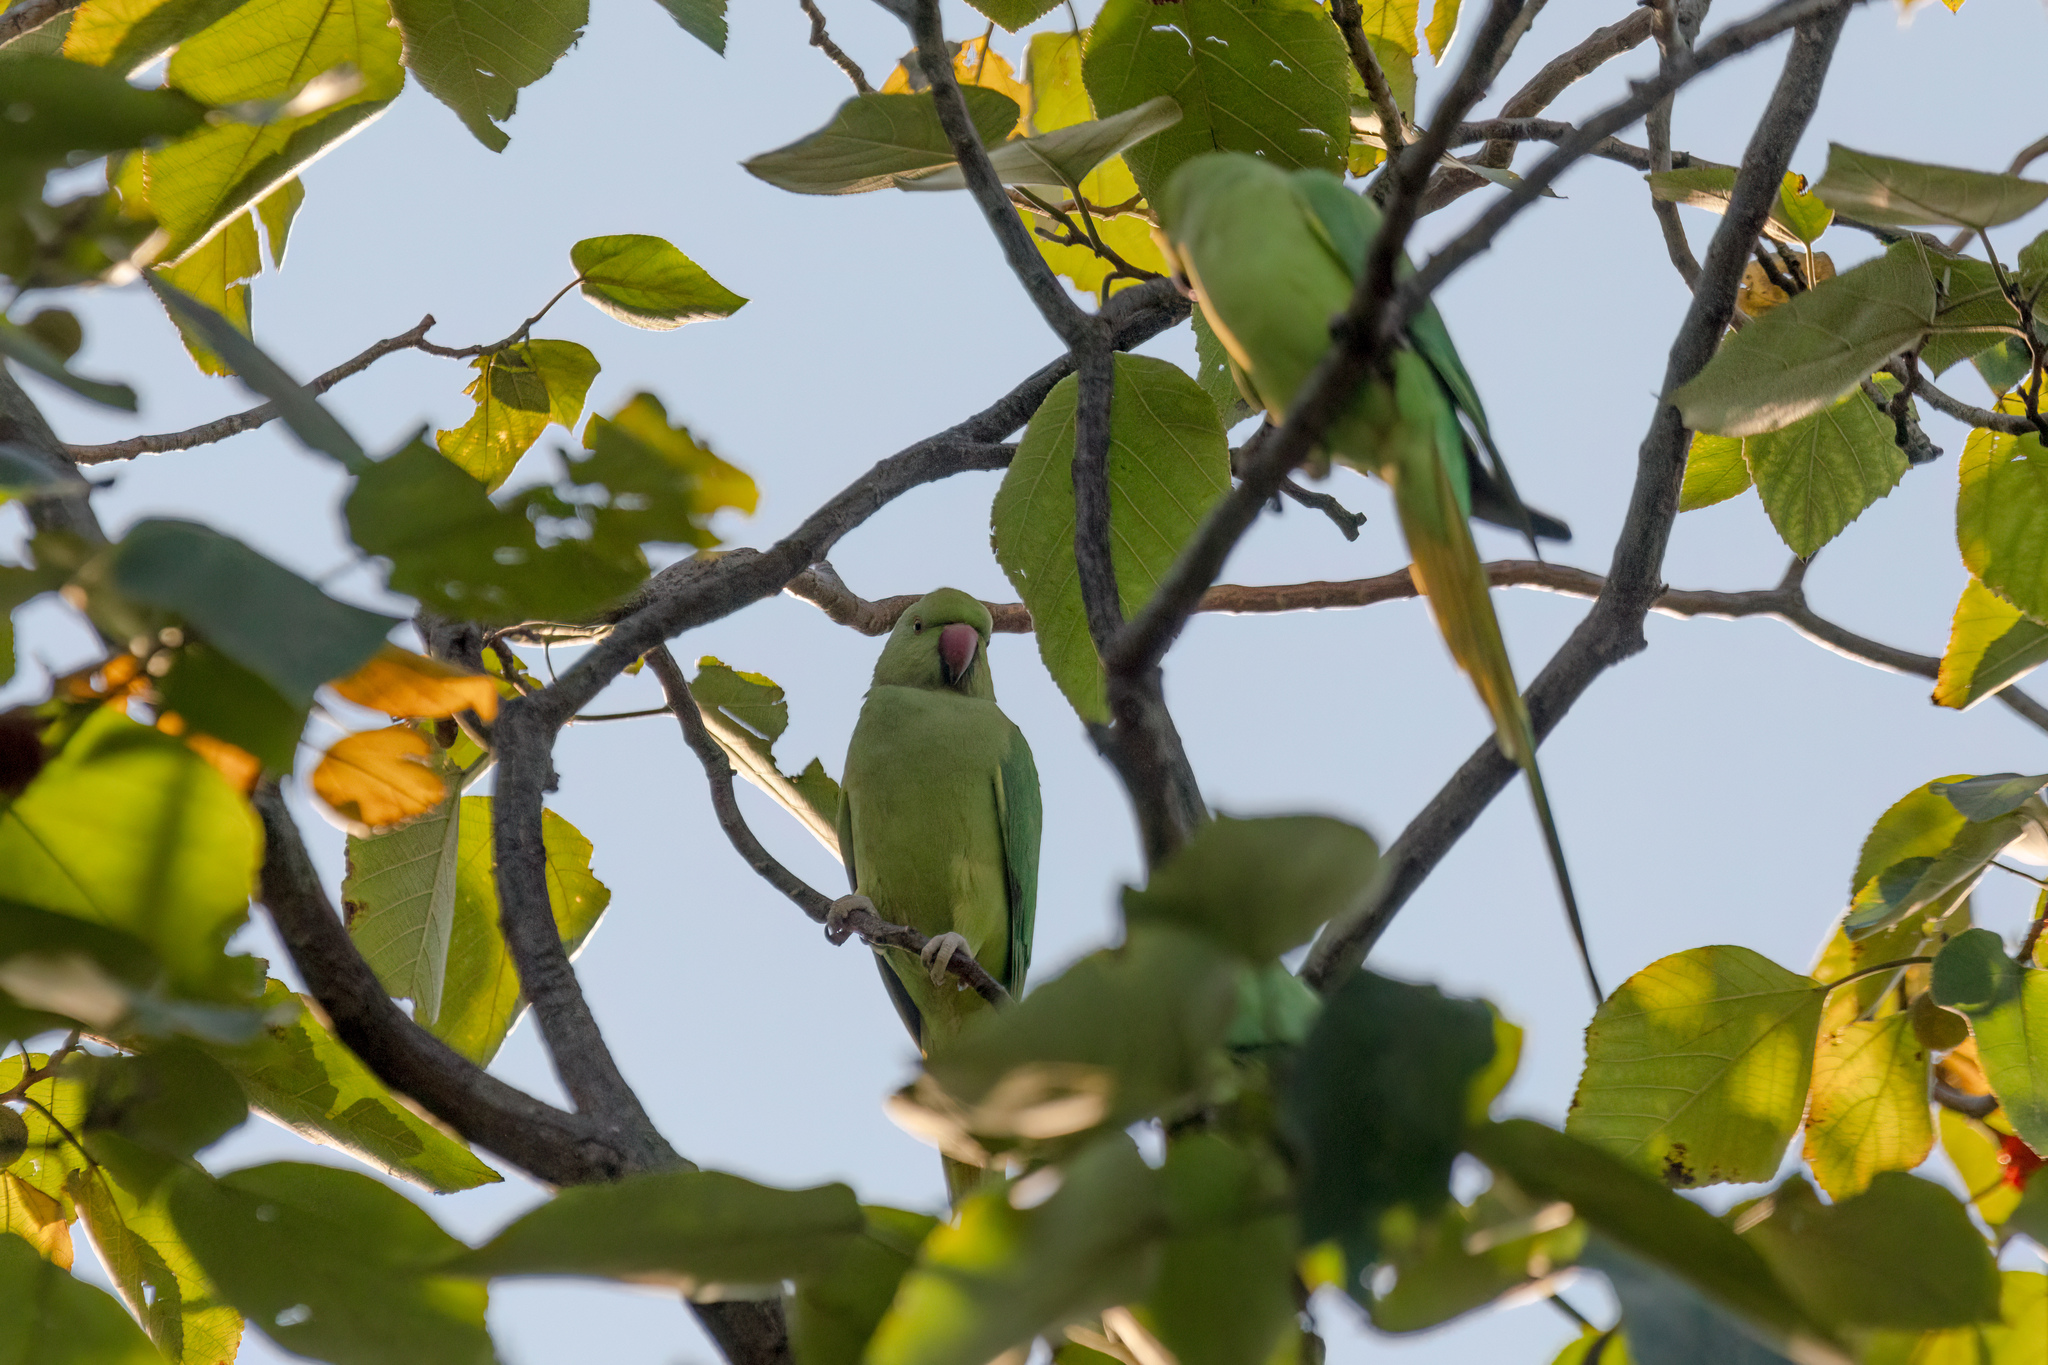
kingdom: Animalia
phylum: Chordata
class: Aves
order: Psittaciformes
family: Psittacidae
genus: Psittacula
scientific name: Psittacula krameri
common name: Rose-ringed parakeet
